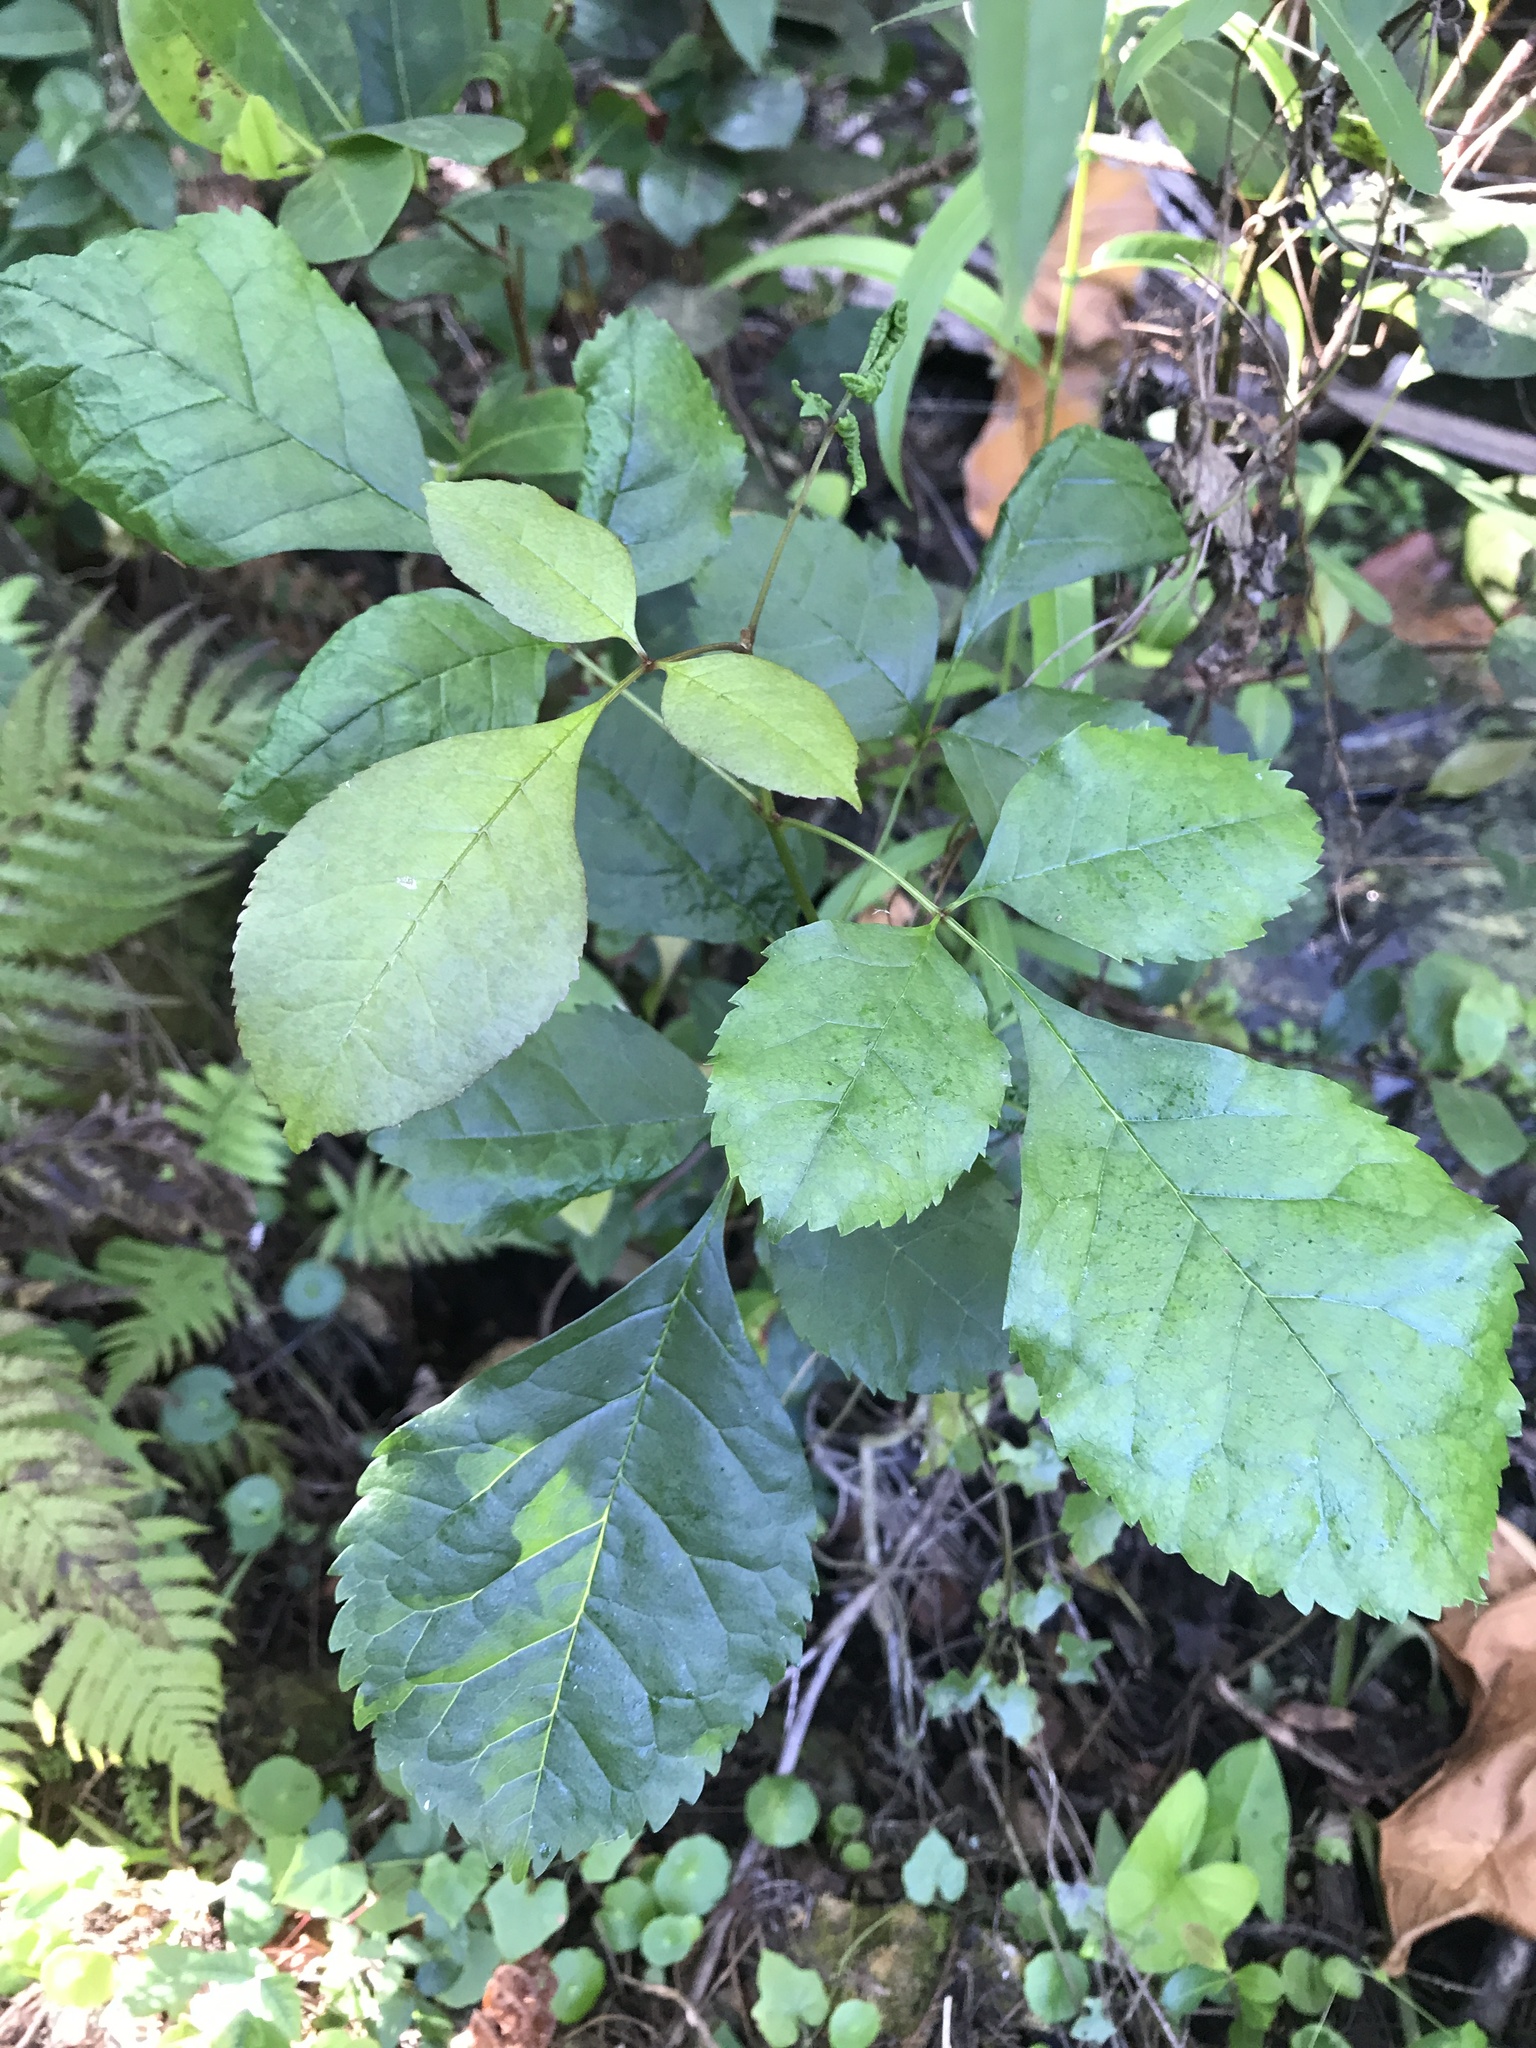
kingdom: Plantae
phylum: Tracheophyta
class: Magnoliopsida
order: Lamiales
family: Oleaceae
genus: Fraxinus
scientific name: Fraxinus caroliniana
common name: Carolina ash
